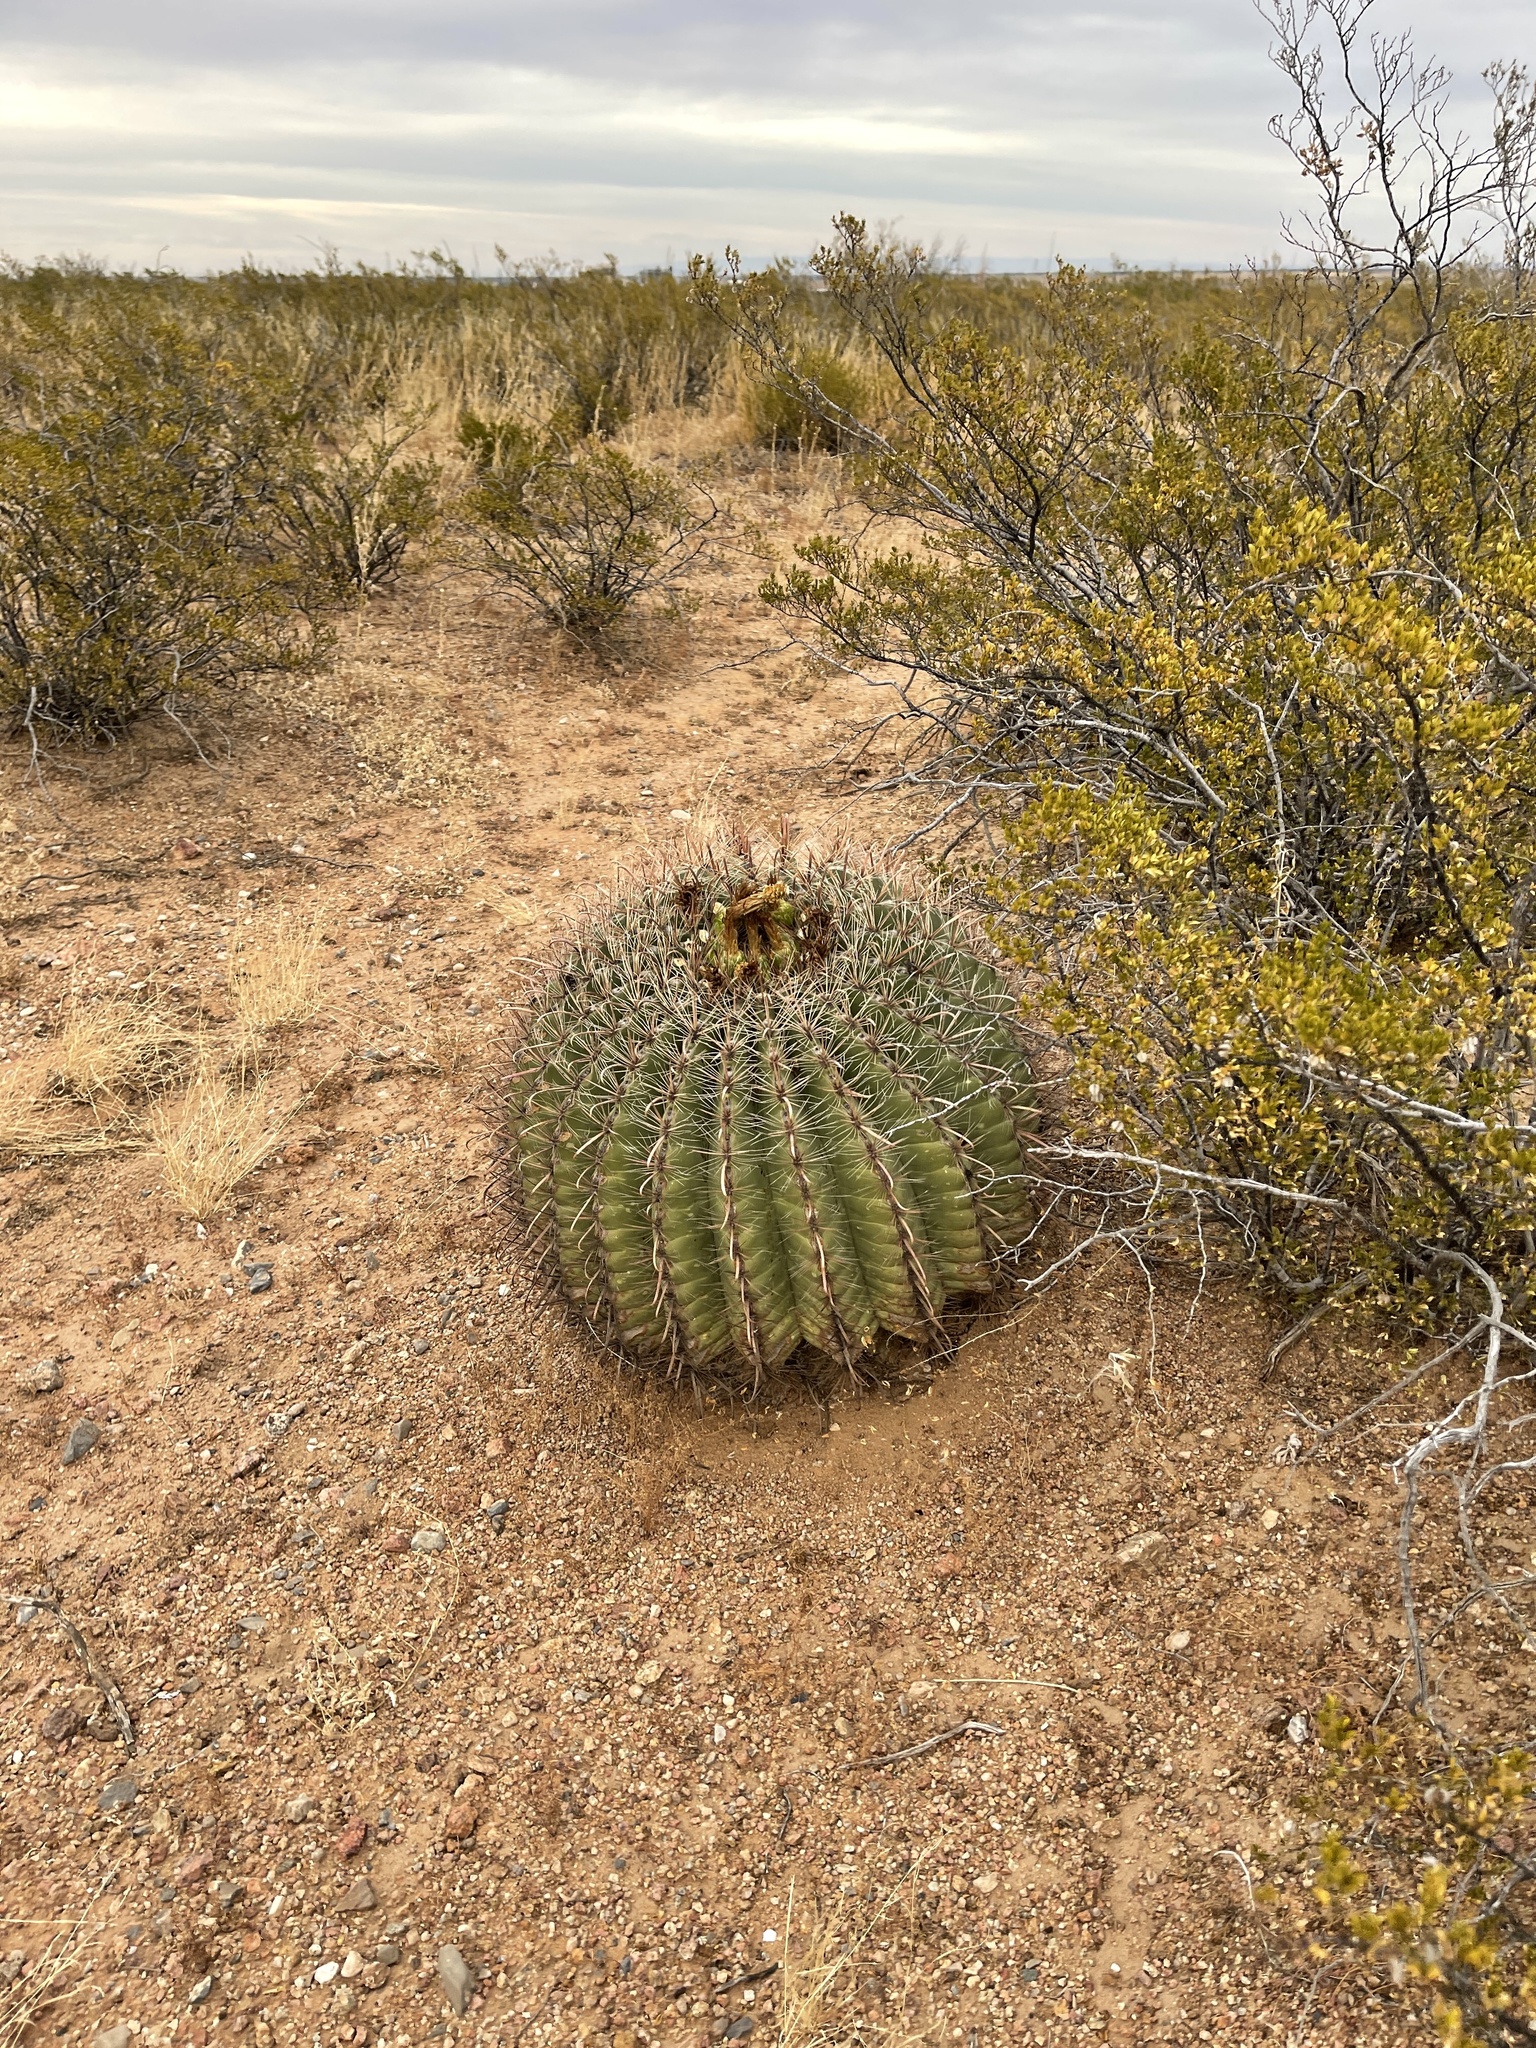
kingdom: Plantae
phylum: Tracheophyta
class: Magnoliopsida
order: Caryophyllales
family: Cactaceae
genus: Ferocactus
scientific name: Ferocactus wislizeni
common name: Candy barrel cactus
